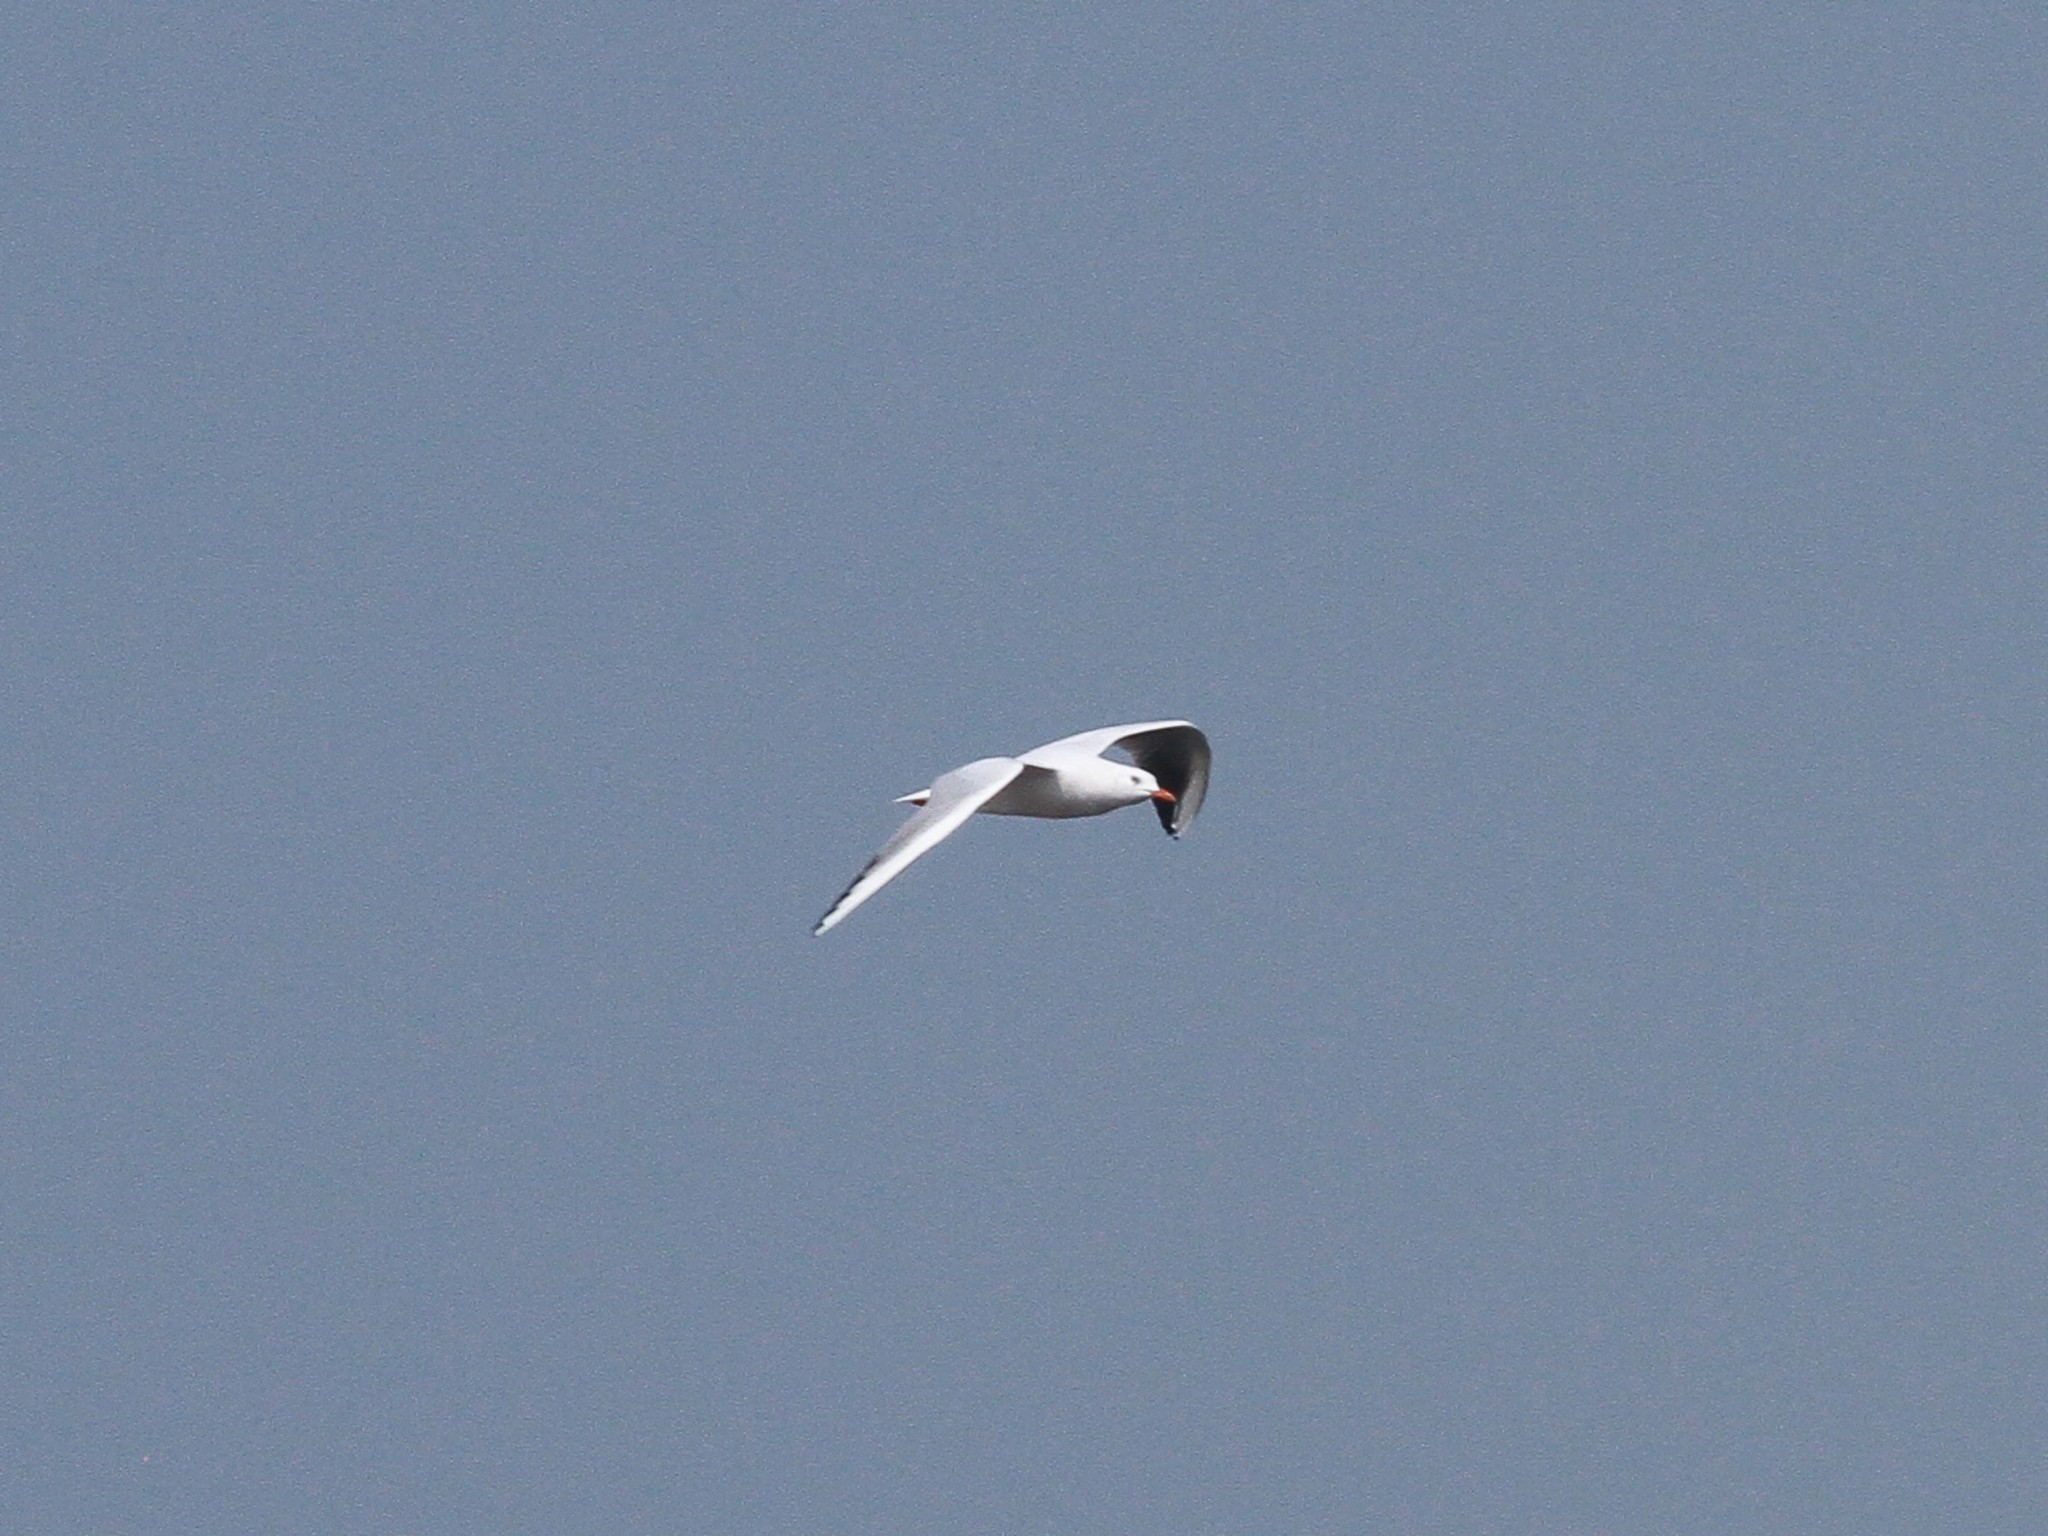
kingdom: Animalia
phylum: Chordata
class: Aves
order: Charadriiformes
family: Laridae
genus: Chroicocephalus
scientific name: Chroicocephalus genei
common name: Slender-billed gull
